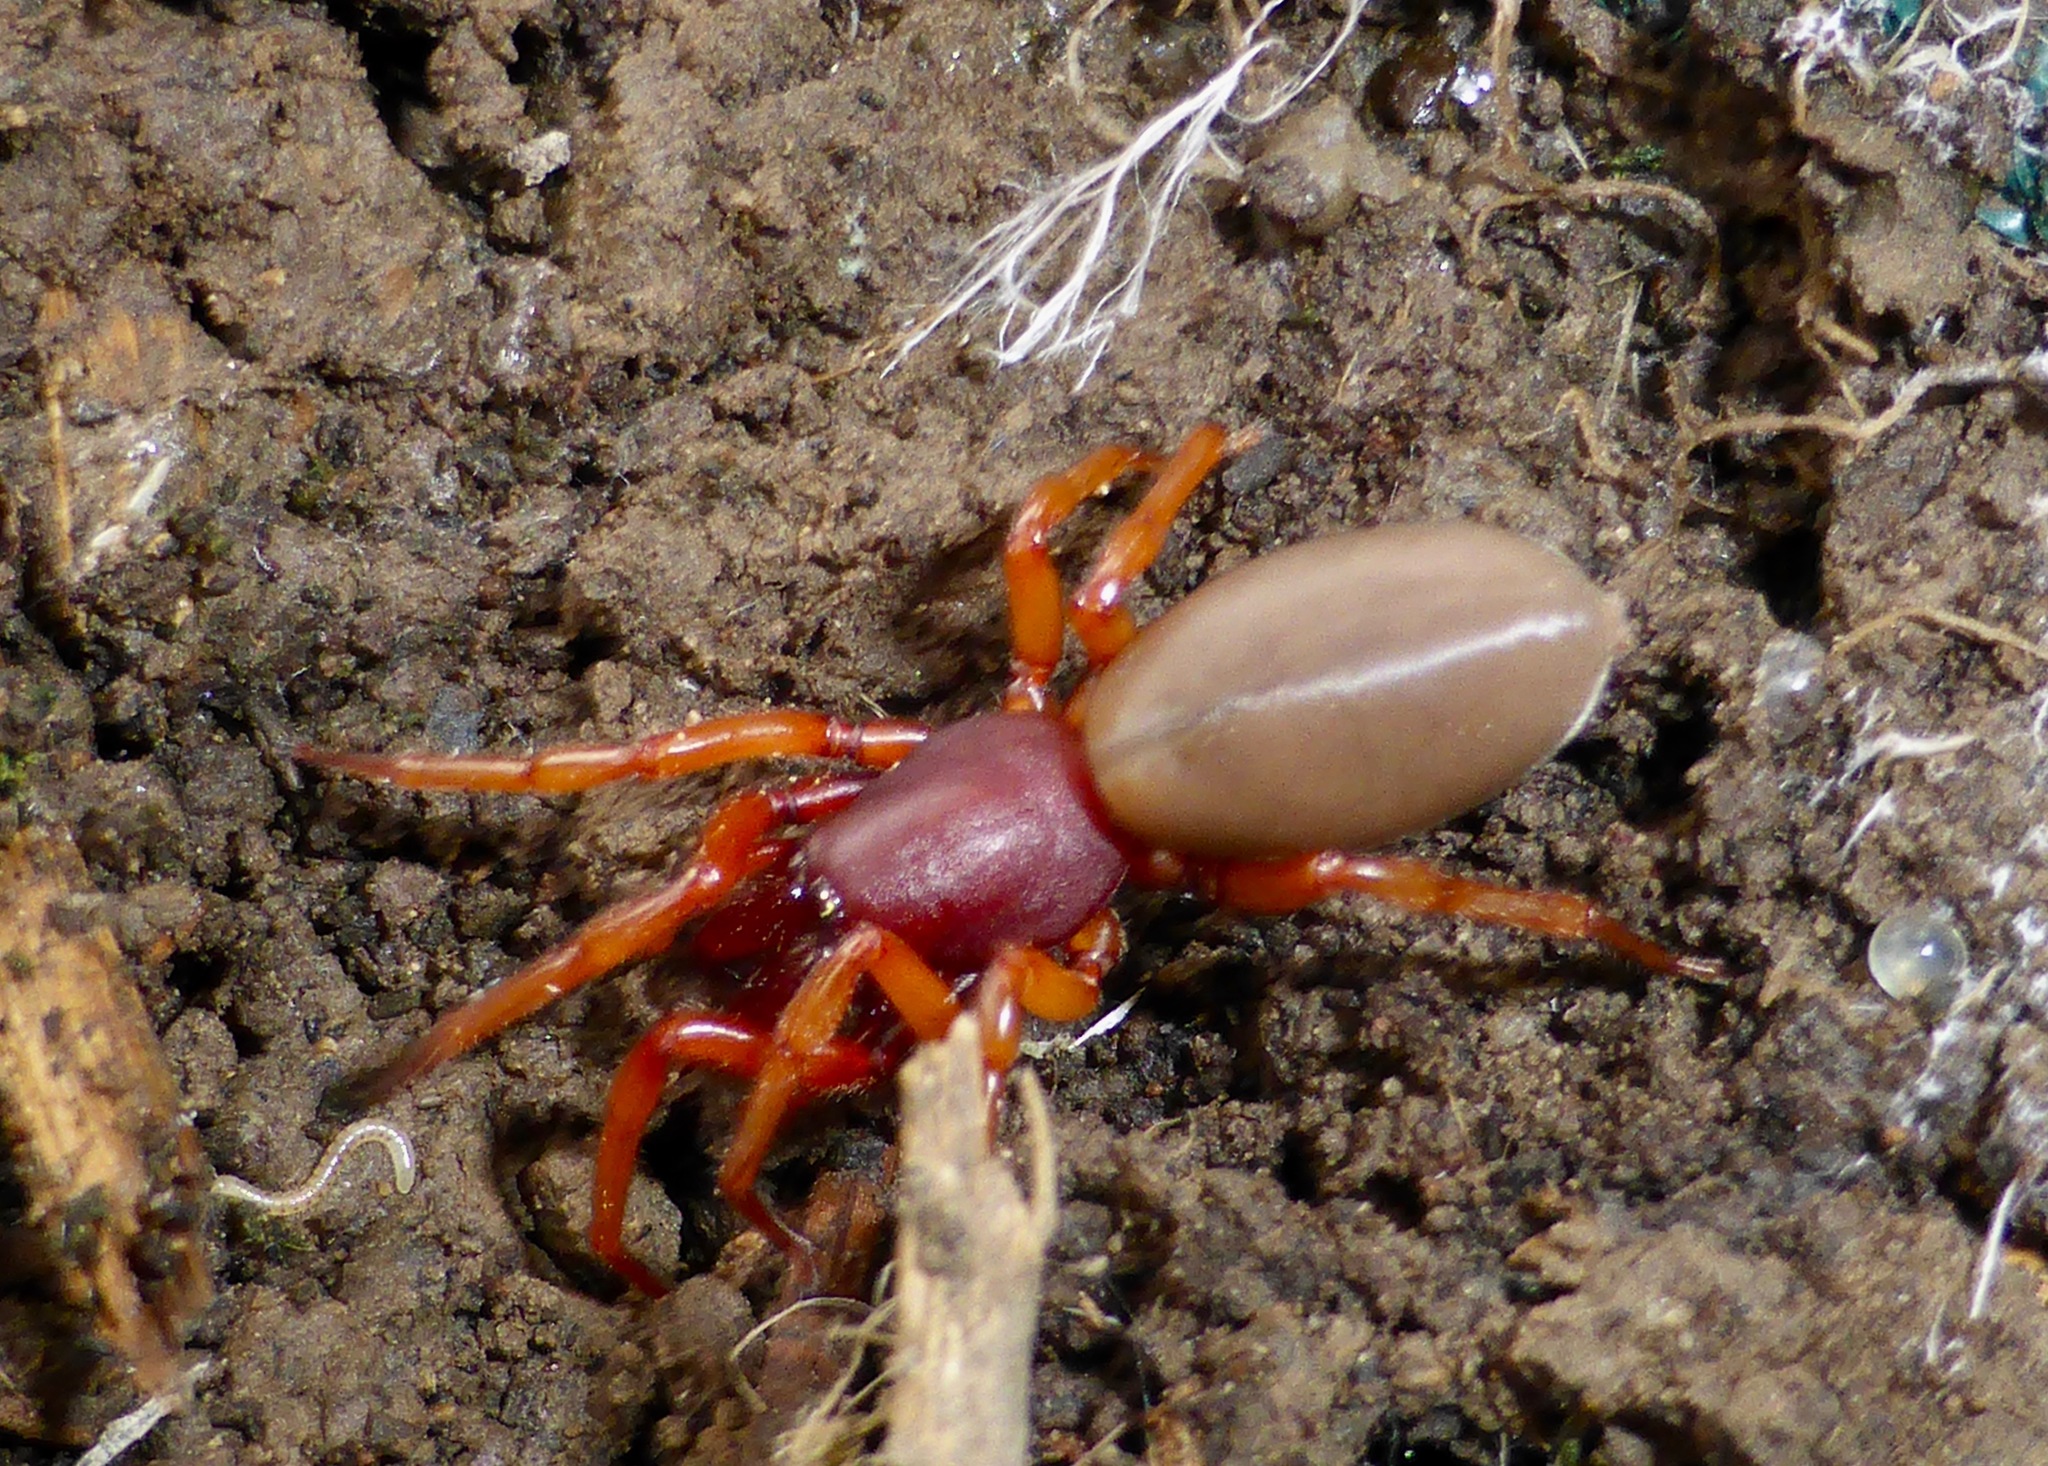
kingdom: Animalia
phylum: Arthropoda
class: Arachnida
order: Araneae
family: Dysderidae
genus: Dysdera
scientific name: Dysdera crocata
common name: Woodlouse spider
